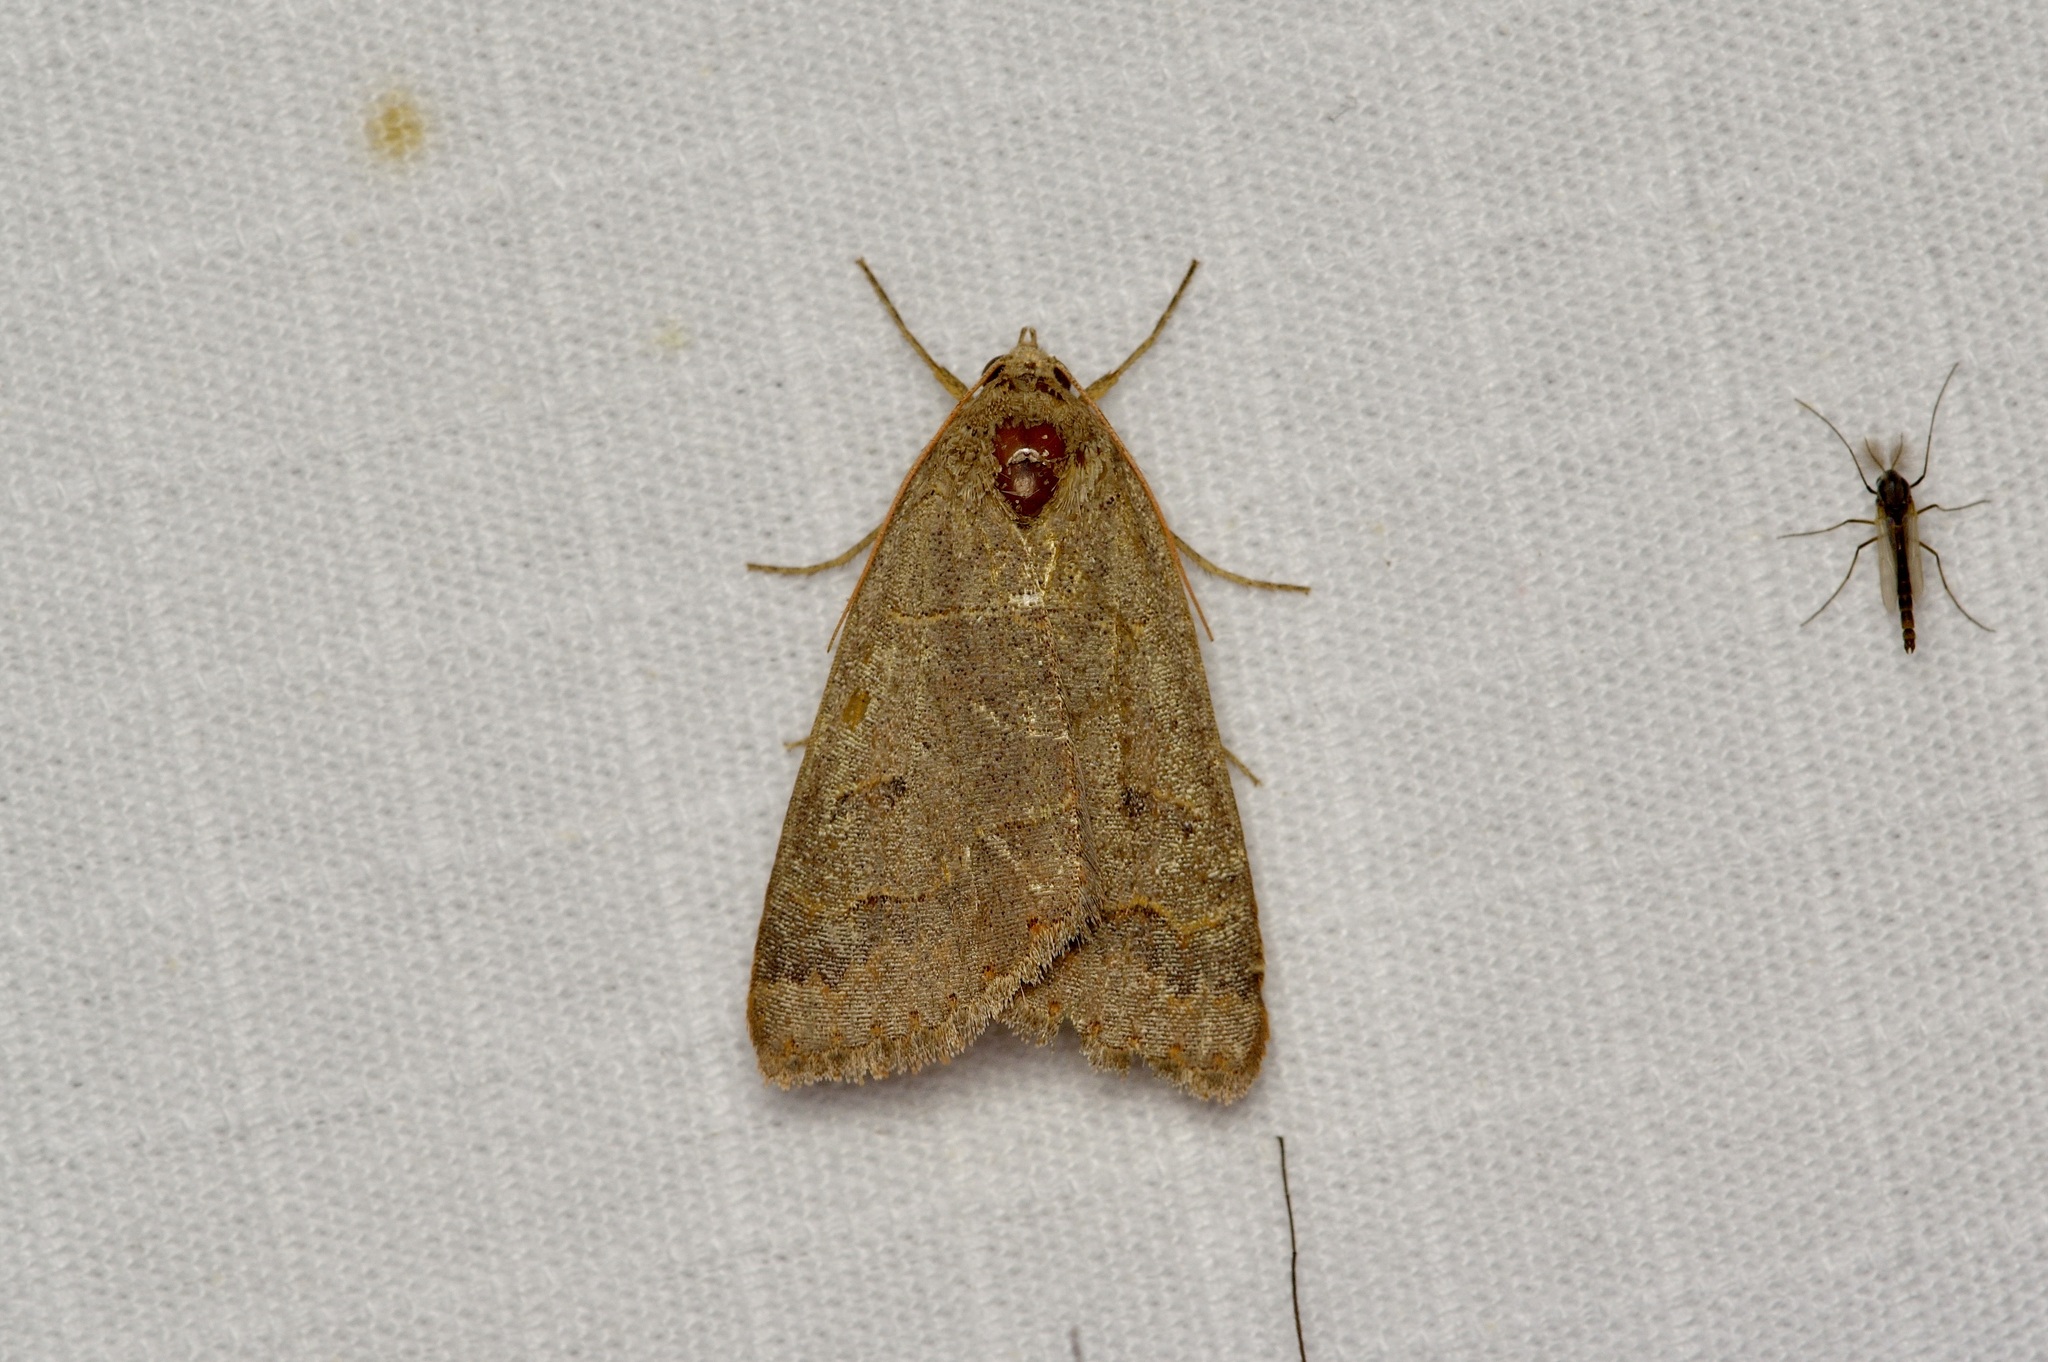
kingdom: Animalia
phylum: Arthropoda
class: Insecta
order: Lepidoptera
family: Erebidae
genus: Phoberia
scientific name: Phoberia atomaris
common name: Common oak moth
